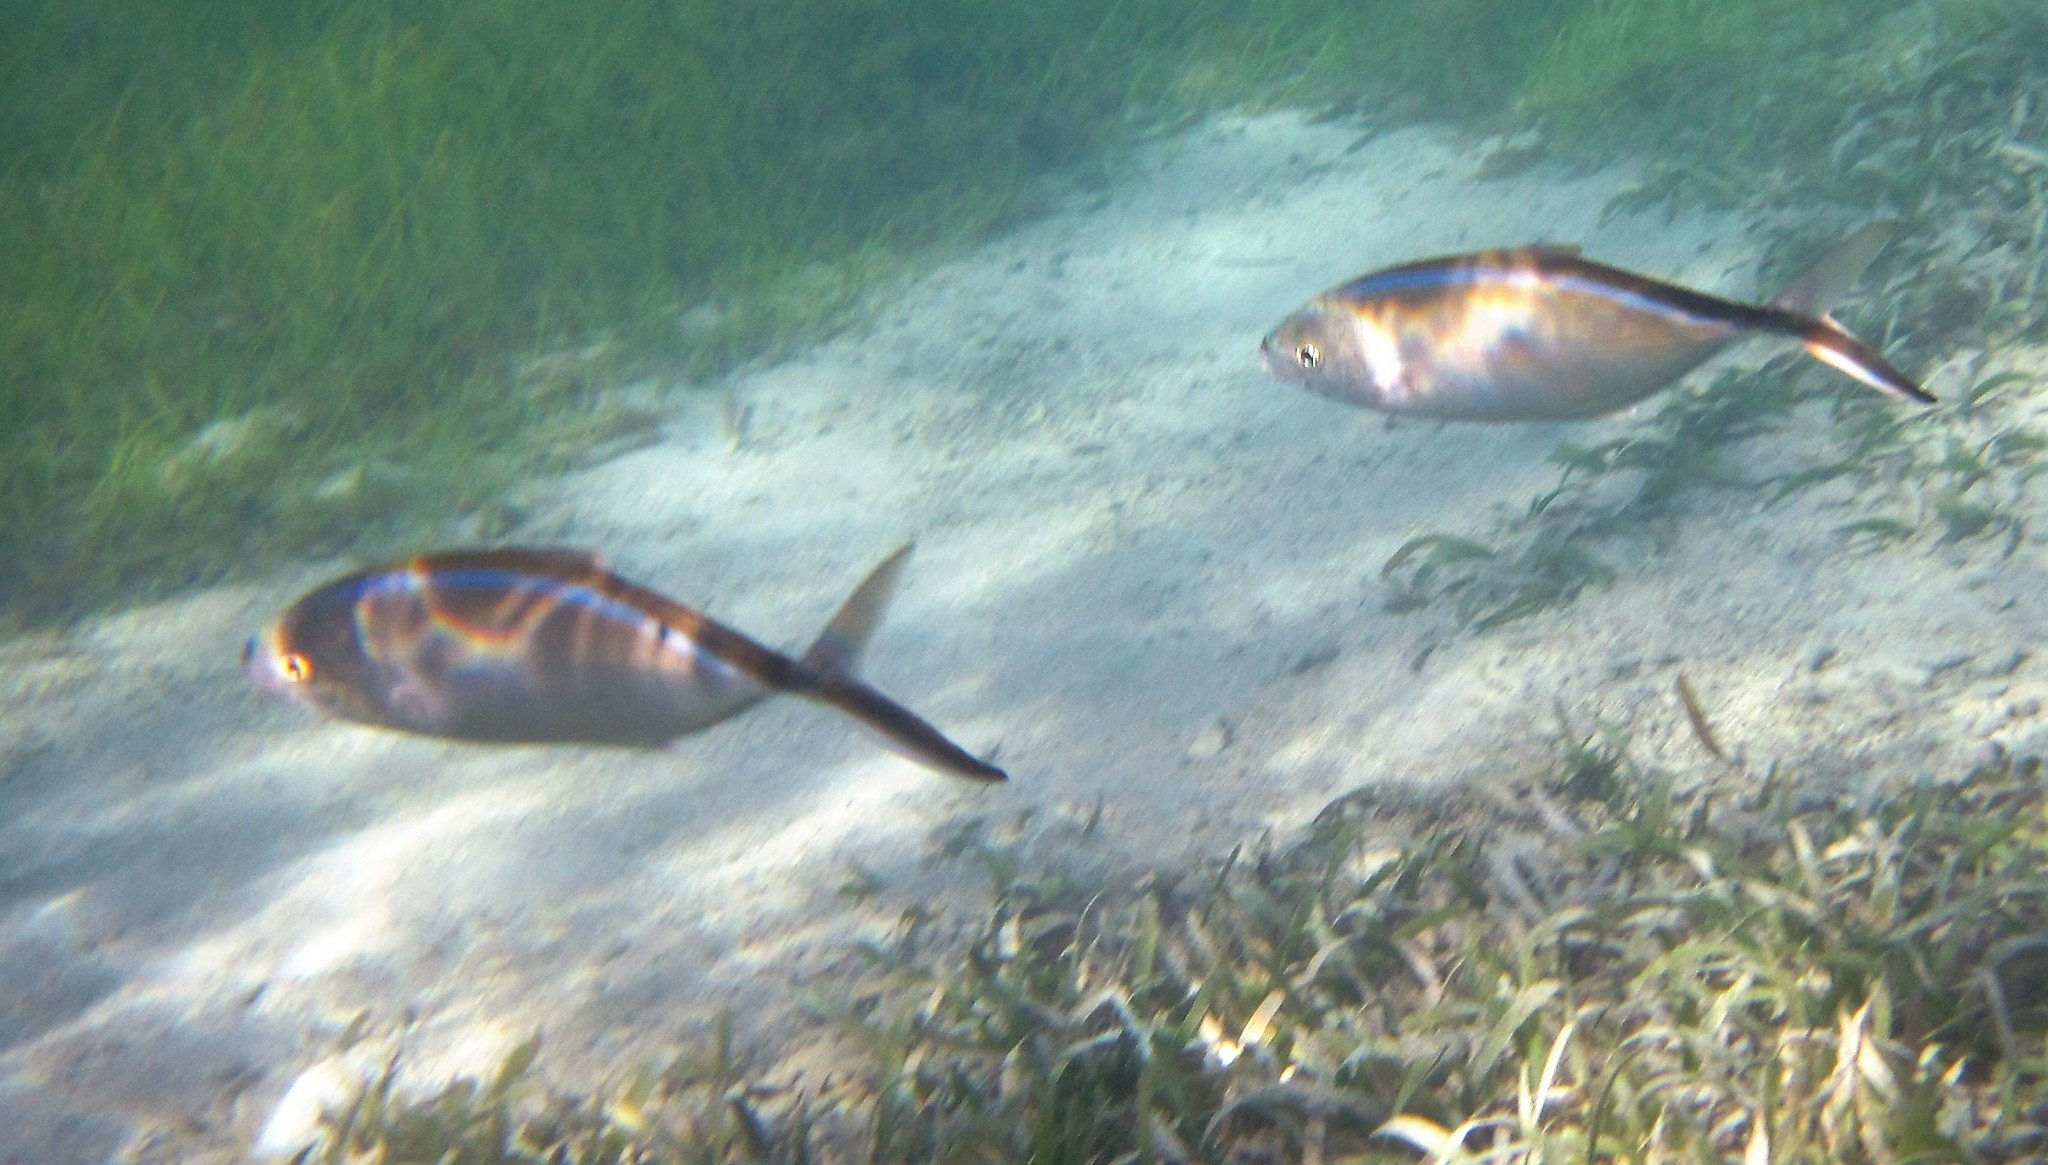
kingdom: Animalia
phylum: Chordata
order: Perciformes
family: Carangidae
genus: Caranx
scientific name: Caranx ruber
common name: Bar jack
